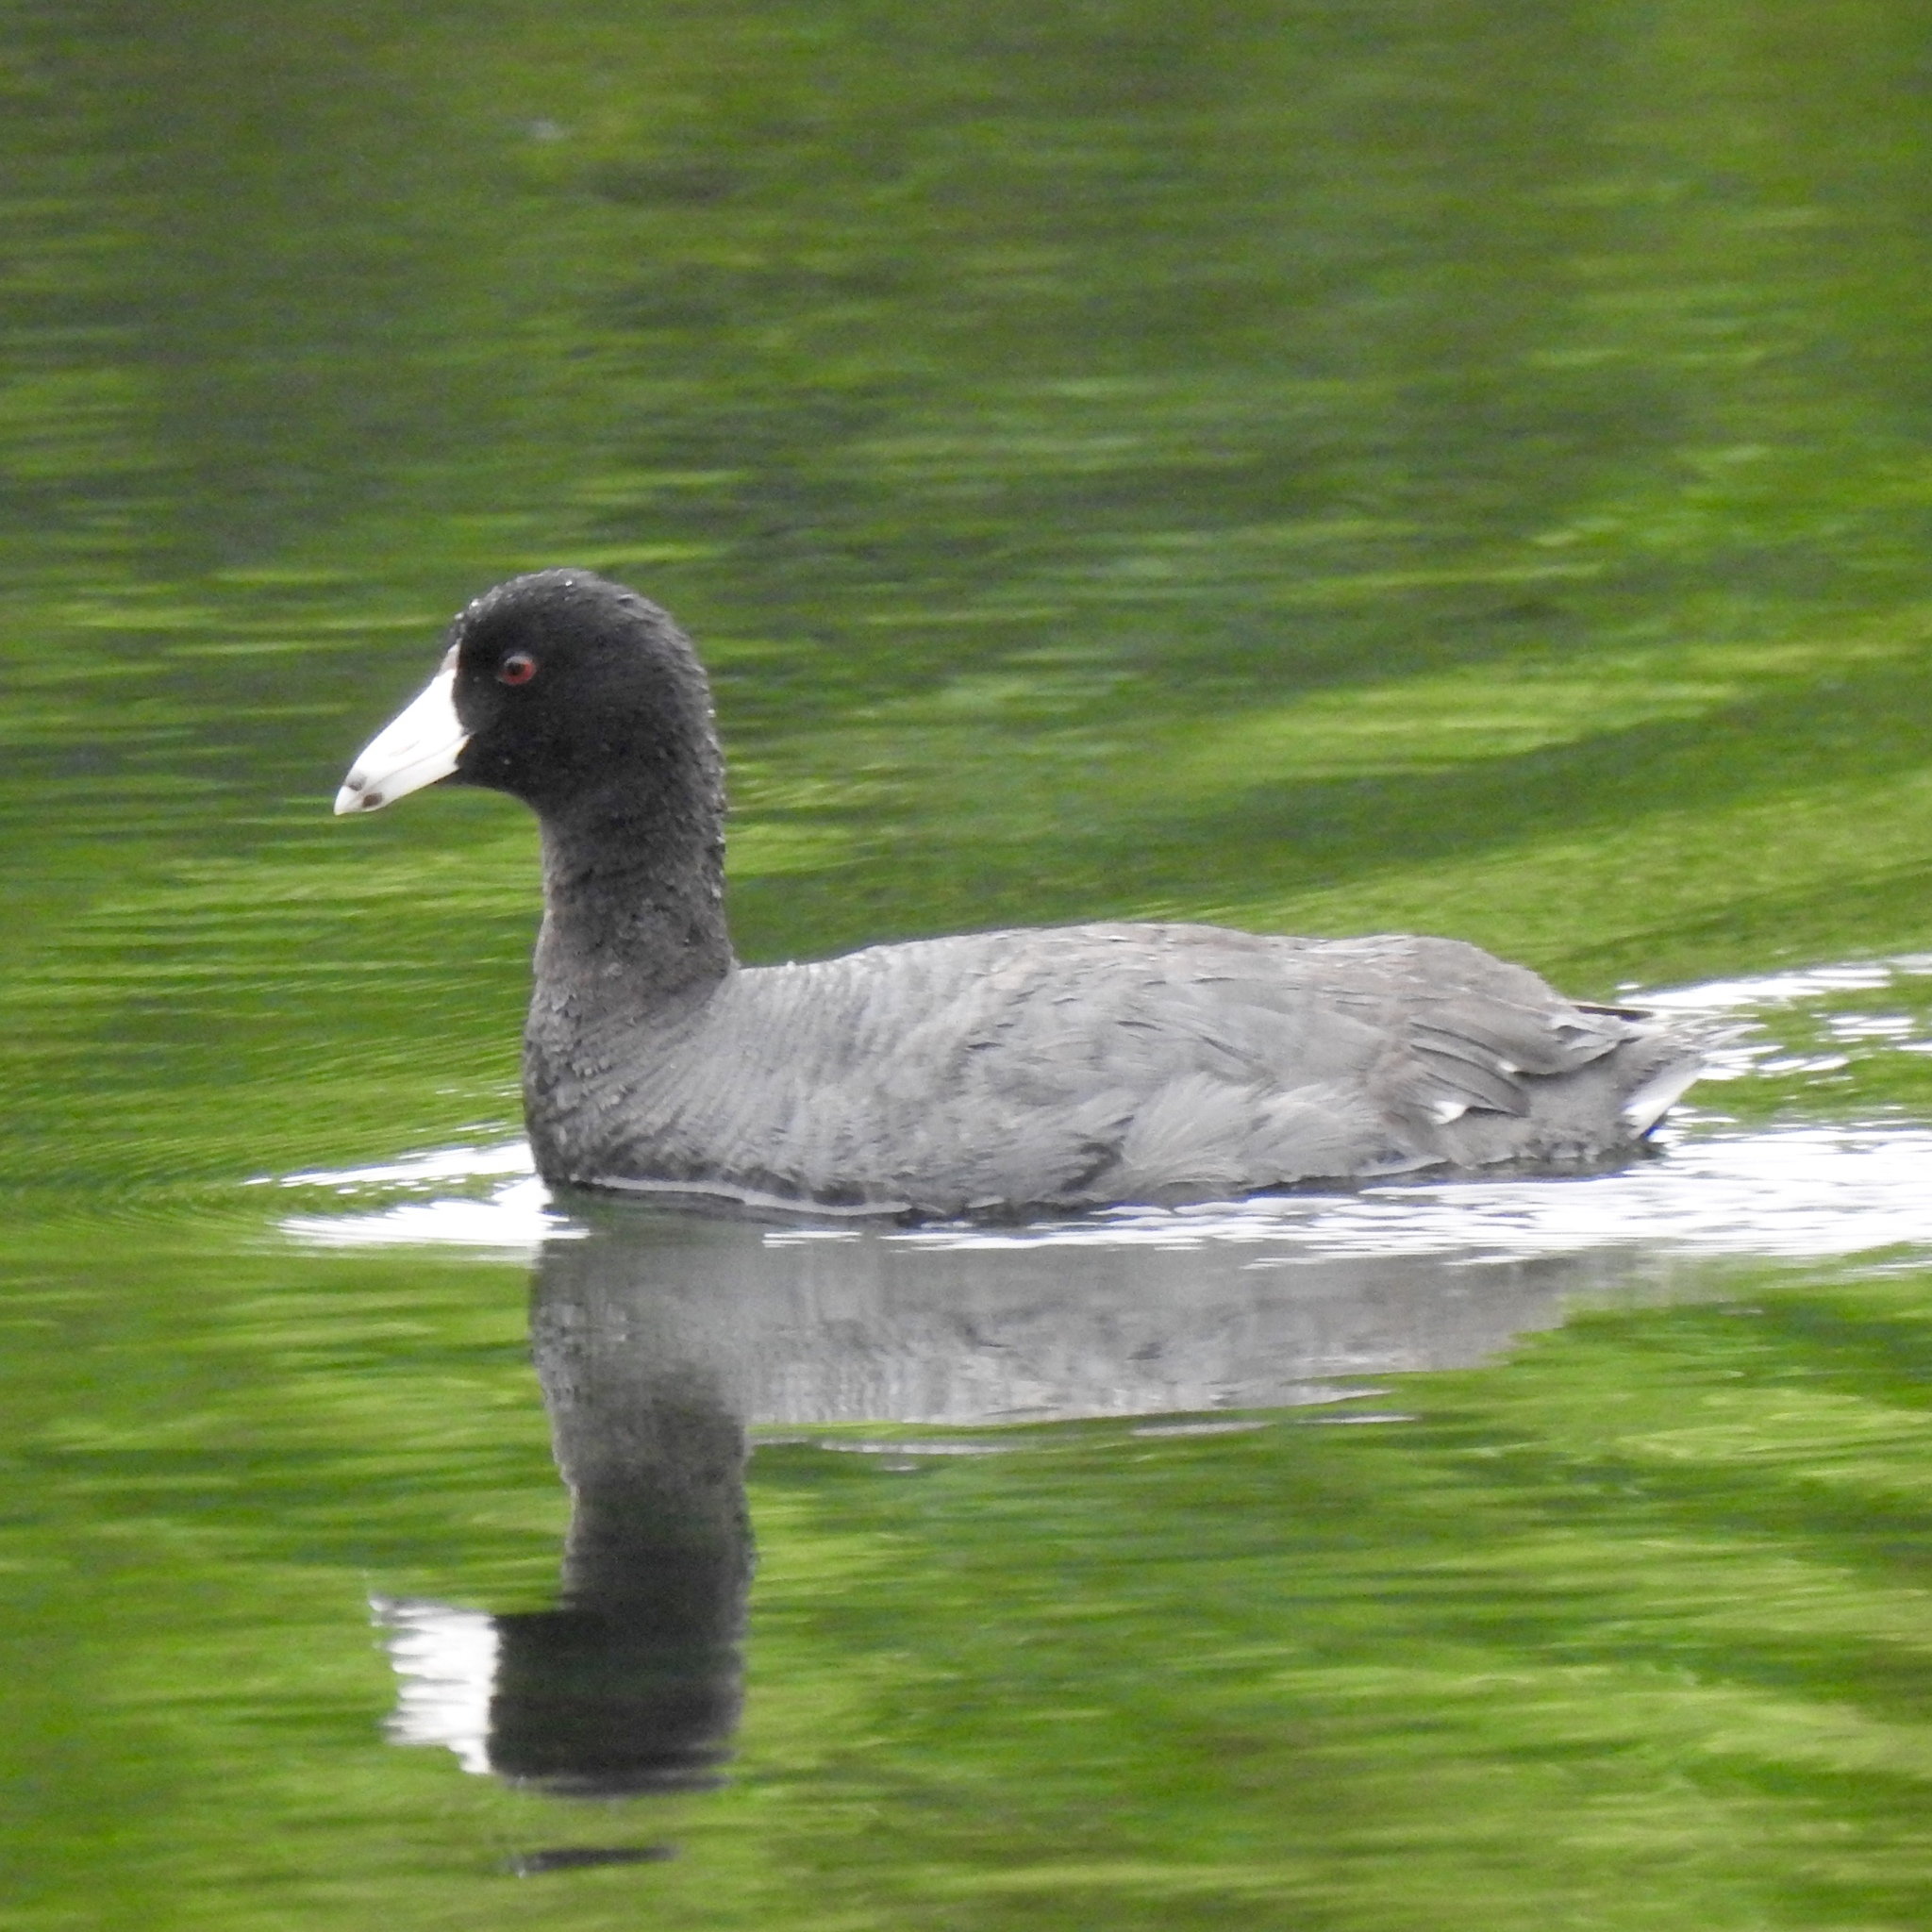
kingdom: Animalia
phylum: Chordata
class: Aves
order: Gruiformes
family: Rallidae
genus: Fulica
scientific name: Fulica americana
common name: American coot
